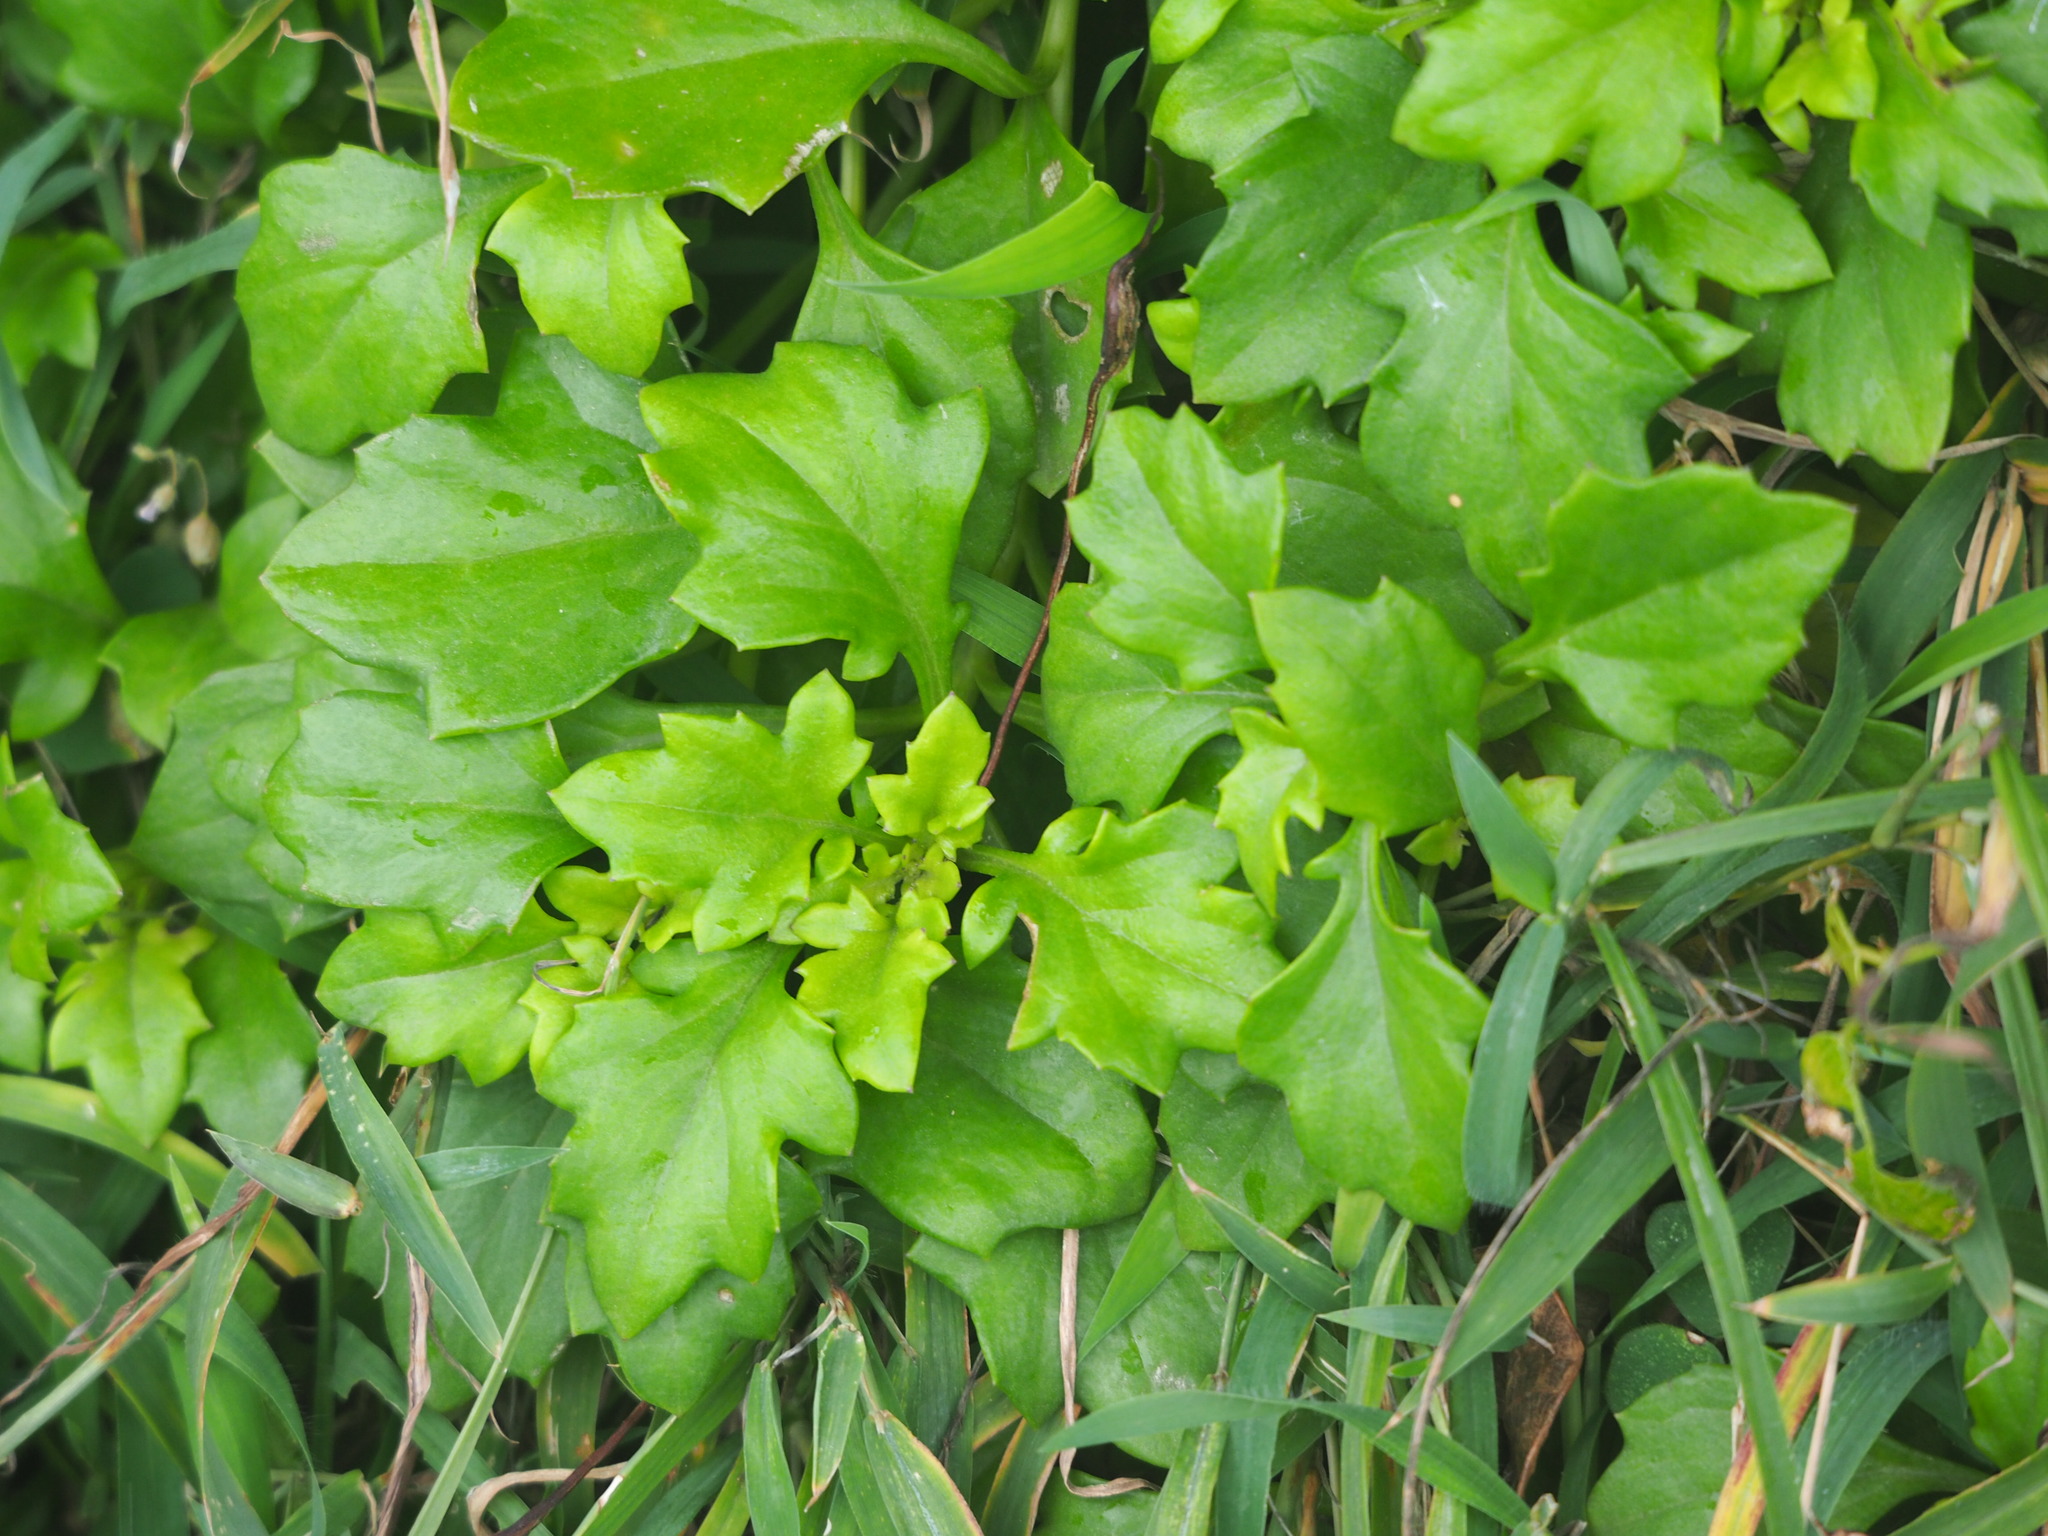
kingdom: Plantae
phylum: Tracheophyta
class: Magnoliopsida
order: Asterales
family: Asteraceae
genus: Gynura
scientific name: Gynura formosana
